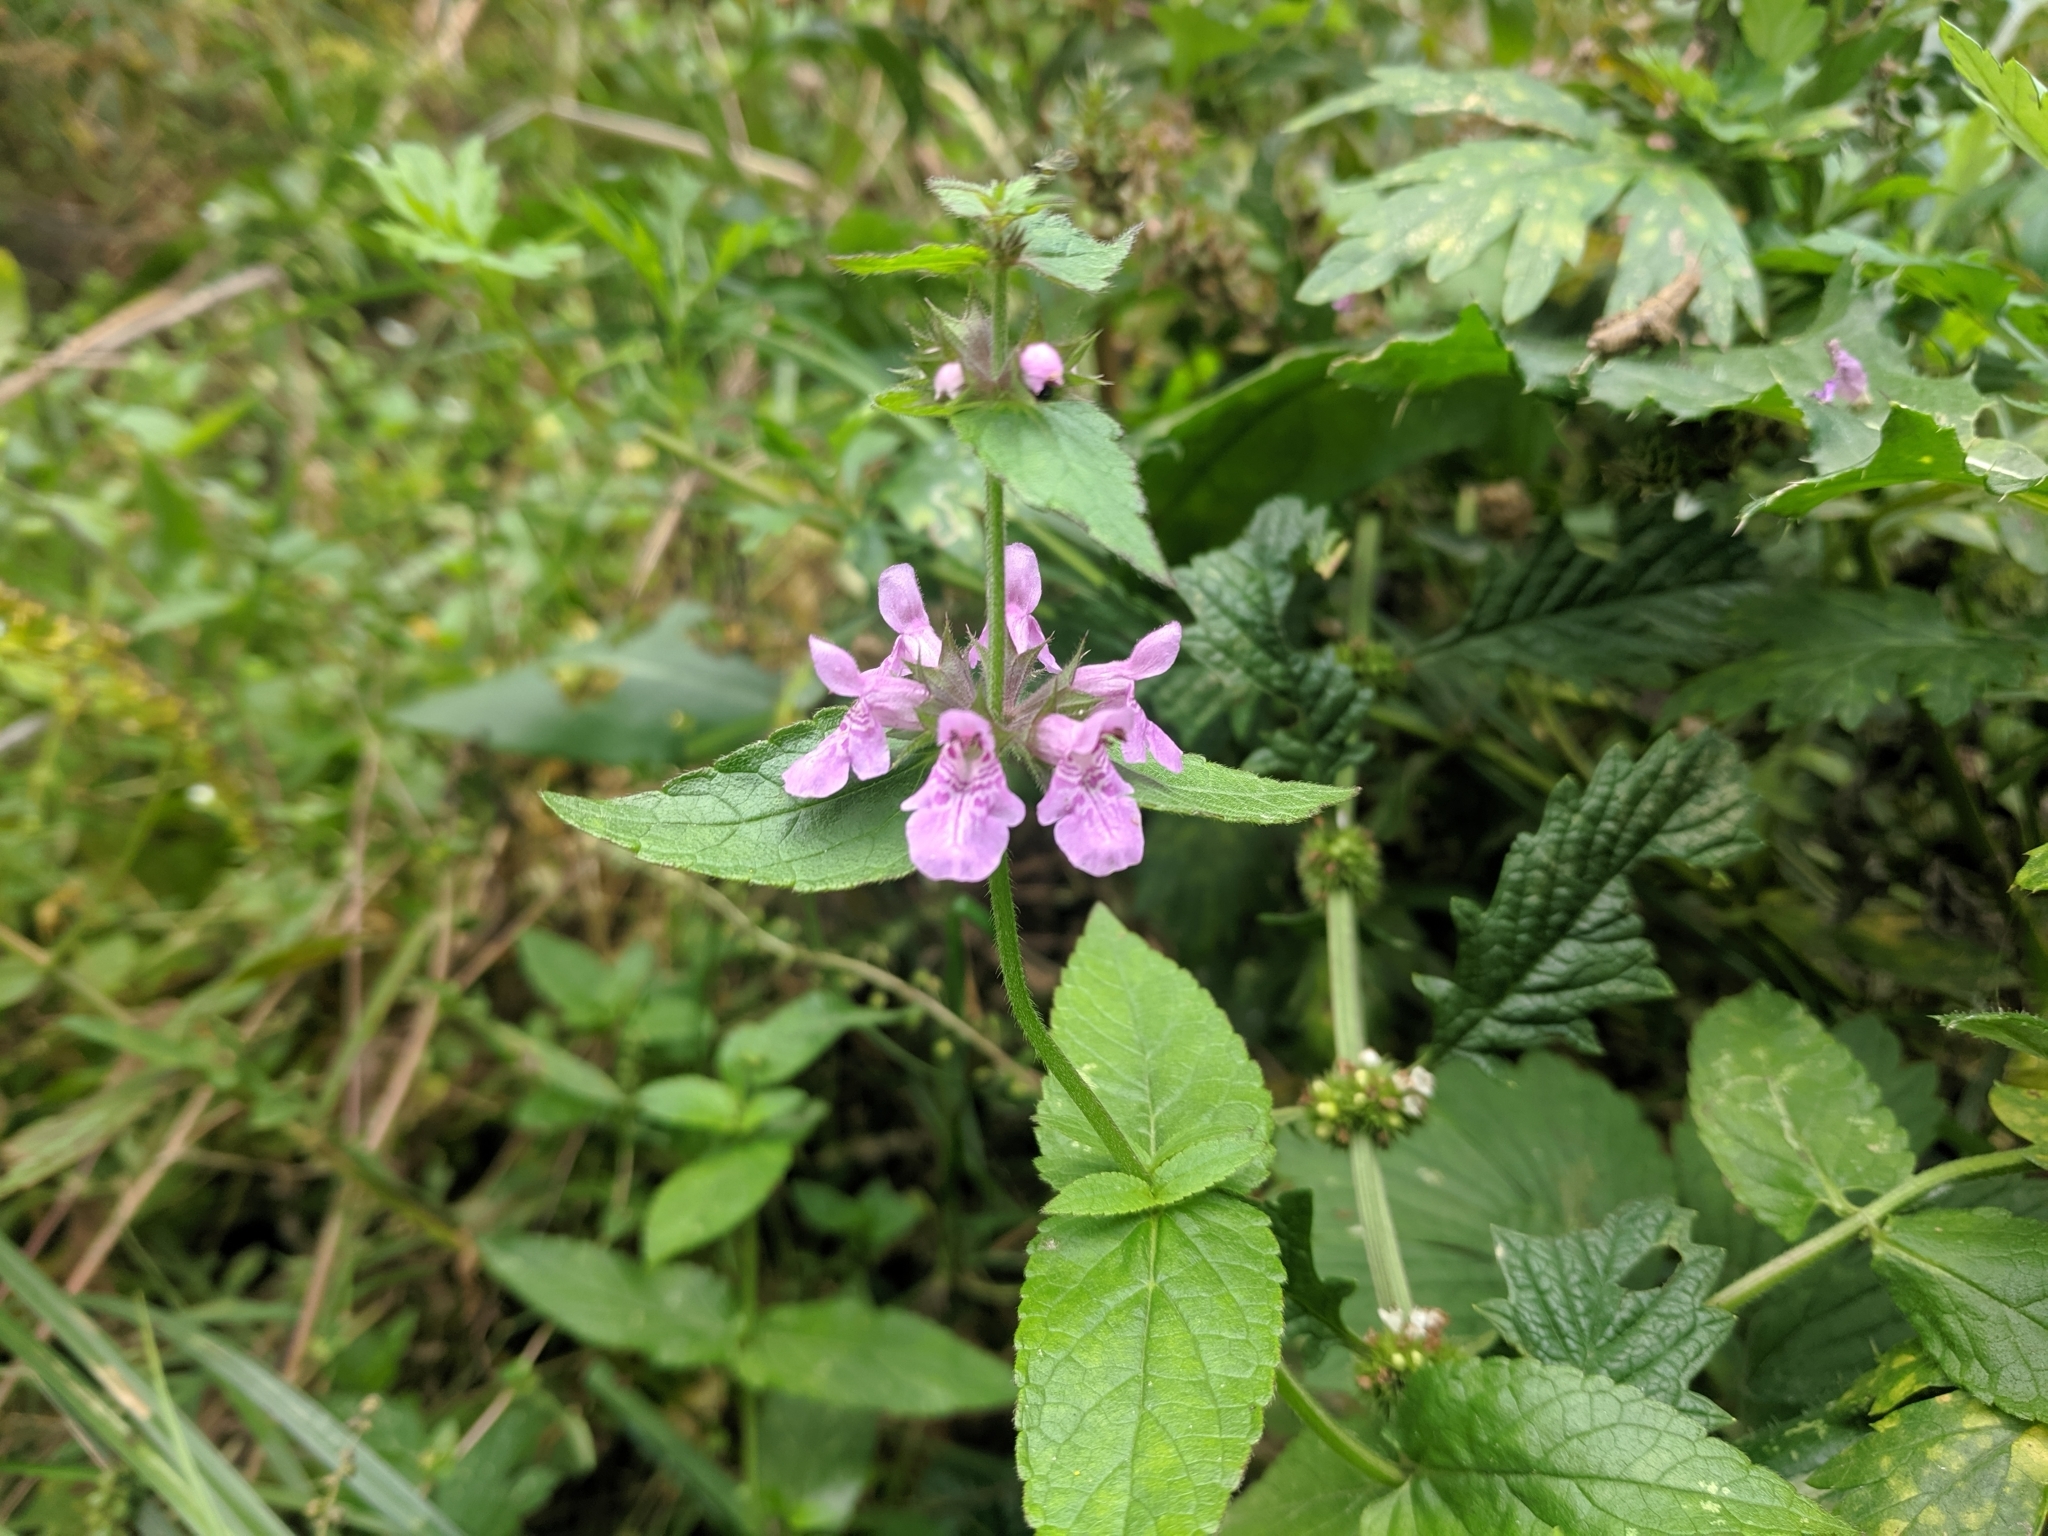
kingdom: Plantae
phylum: Tracheophyta
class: Magnoliopsida
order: Lamiales
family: Lamiaceae
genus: Stachys
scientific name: Stachys palustris
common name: Marsh woundwort
